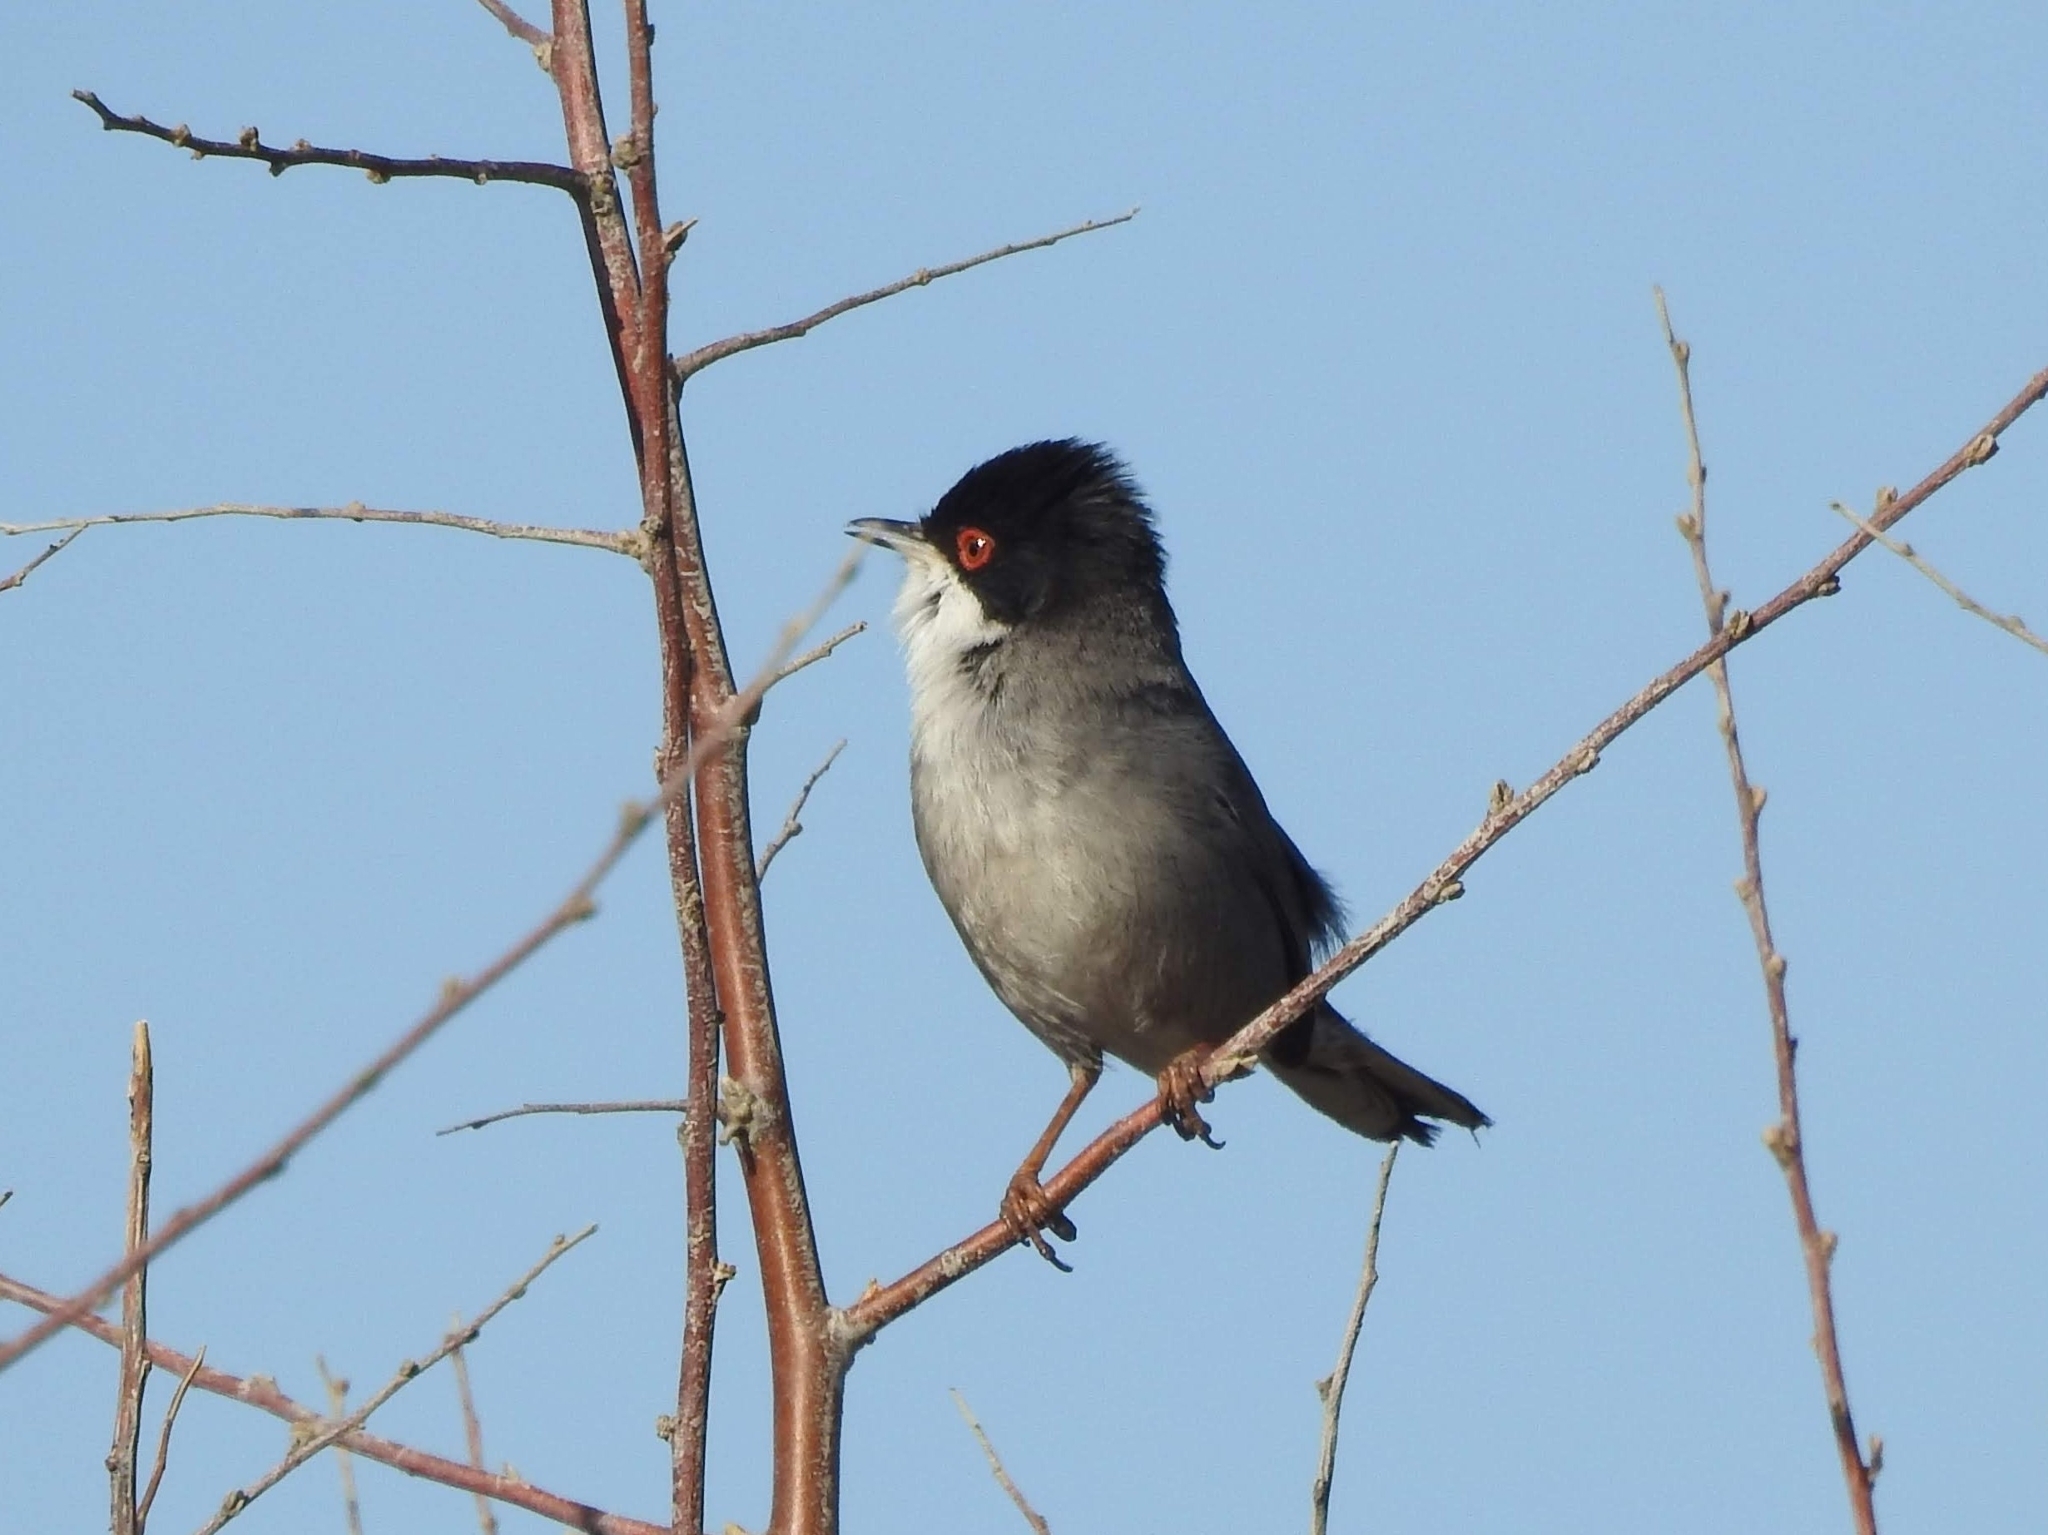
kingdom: Animalia
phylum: Chordata
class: Aves
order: Passeriformes
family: Sylviidae
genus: Curruca
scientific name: Curruca melanocephala
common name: Sardinian warbler
